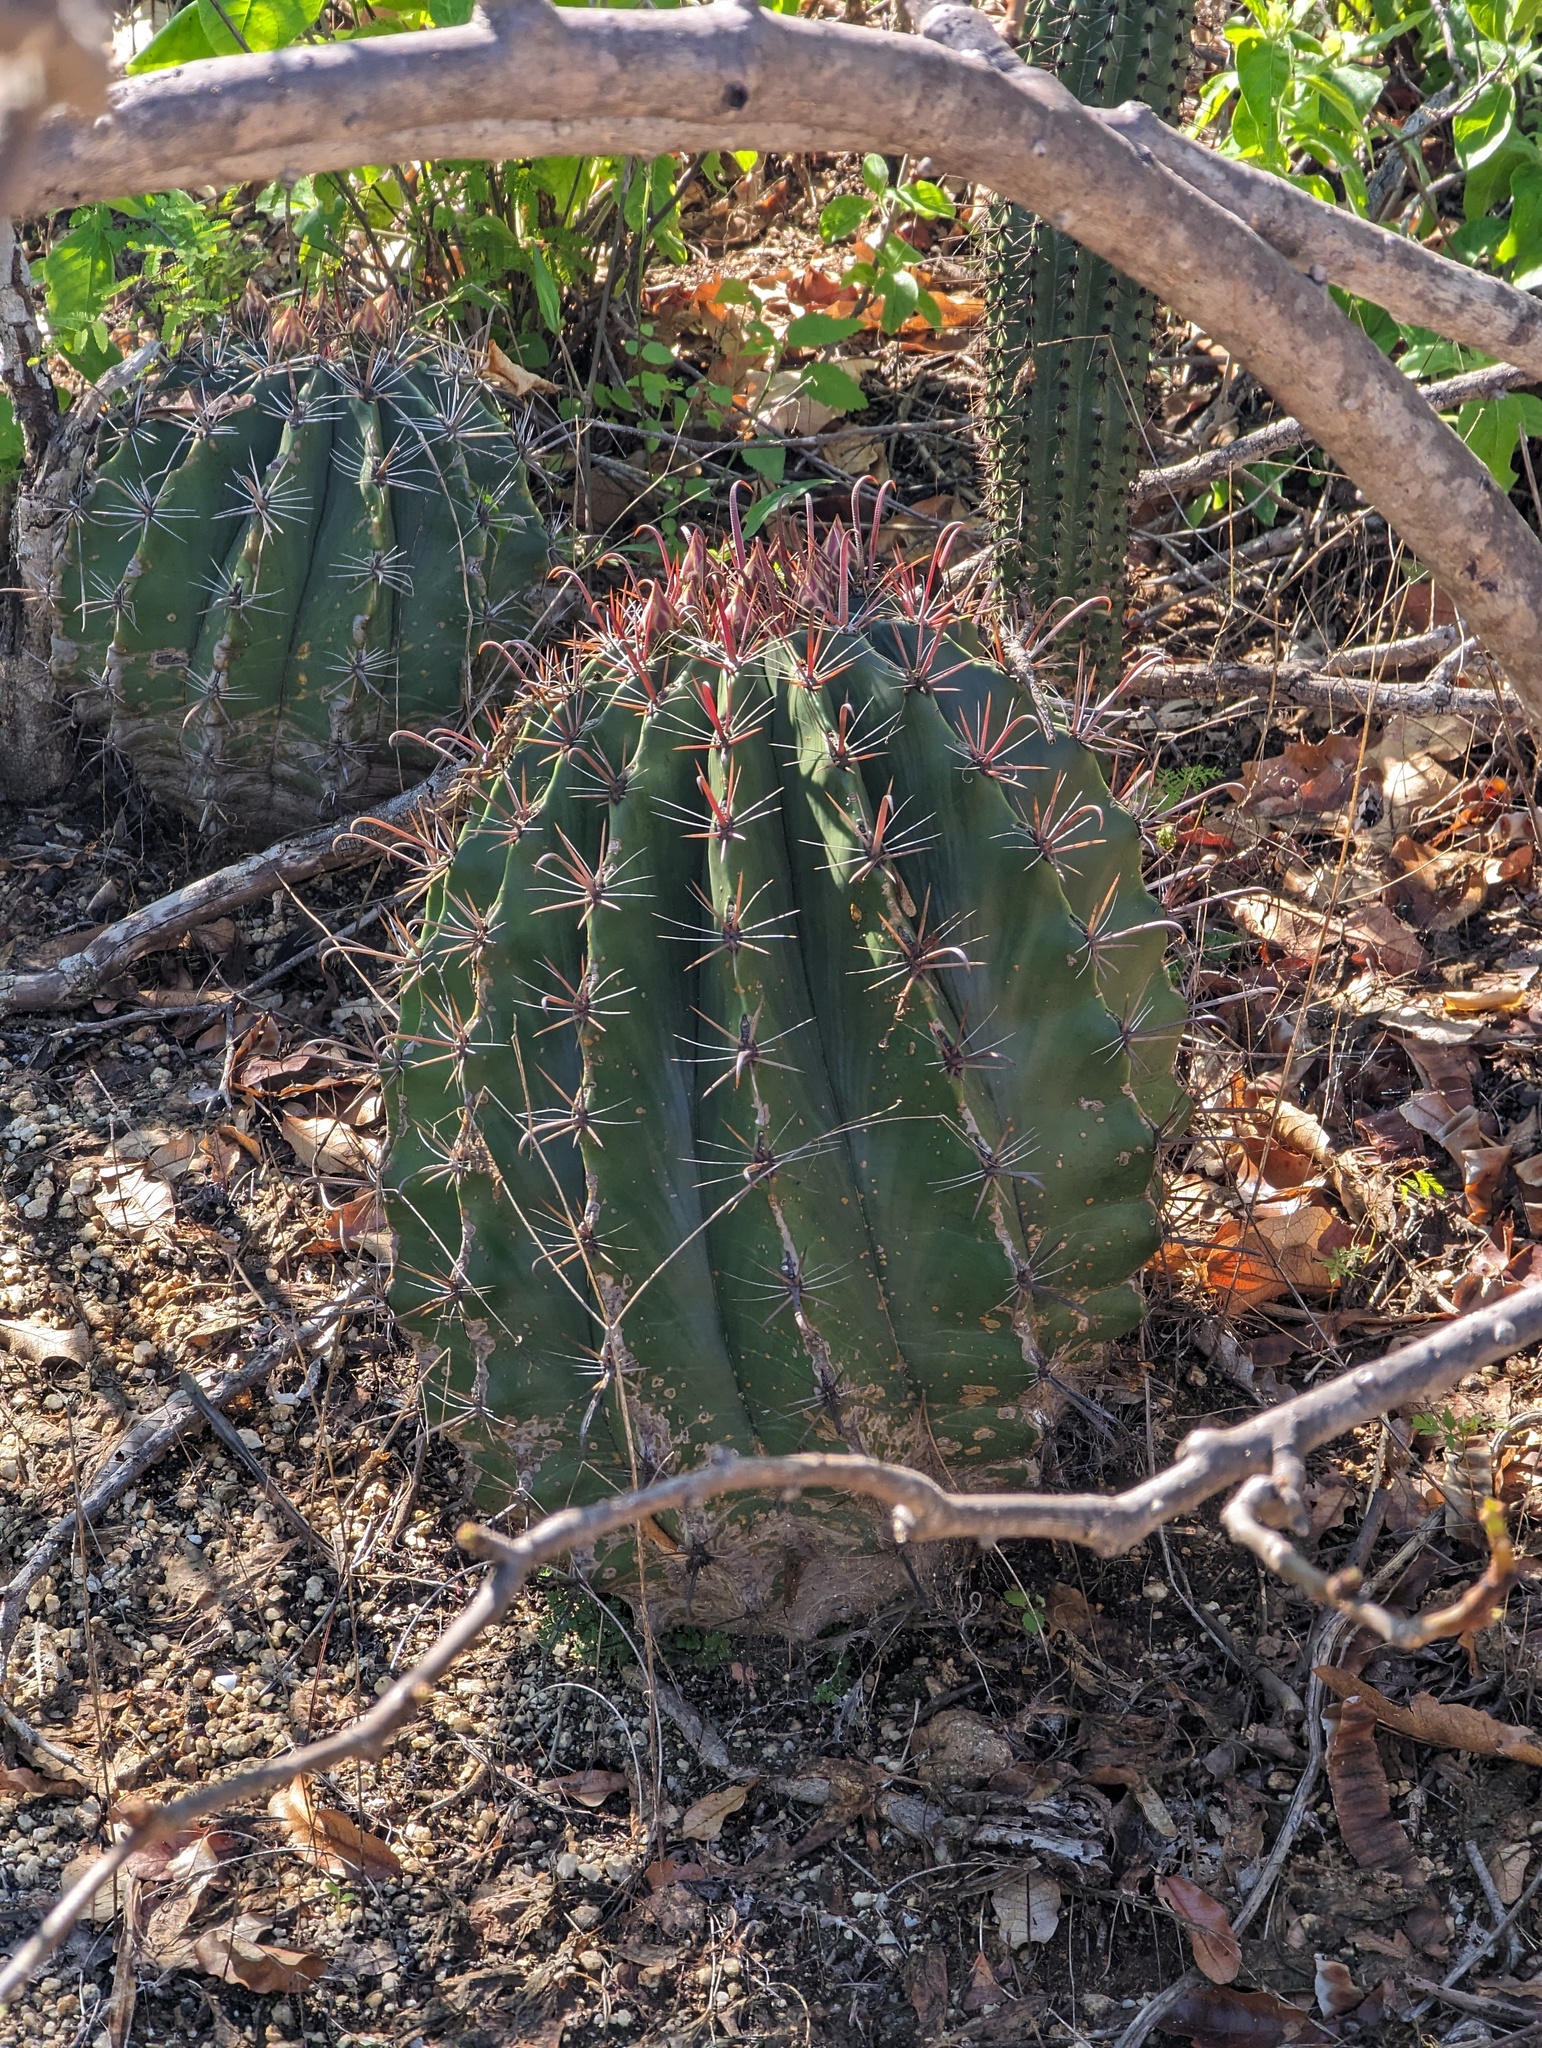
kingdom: Plantae
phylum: Tracheophyta
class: Magnoliopsida
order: Caryophyllales
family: Cactaceae
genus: Ferocactus
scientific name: Ferocactus townsendianus
